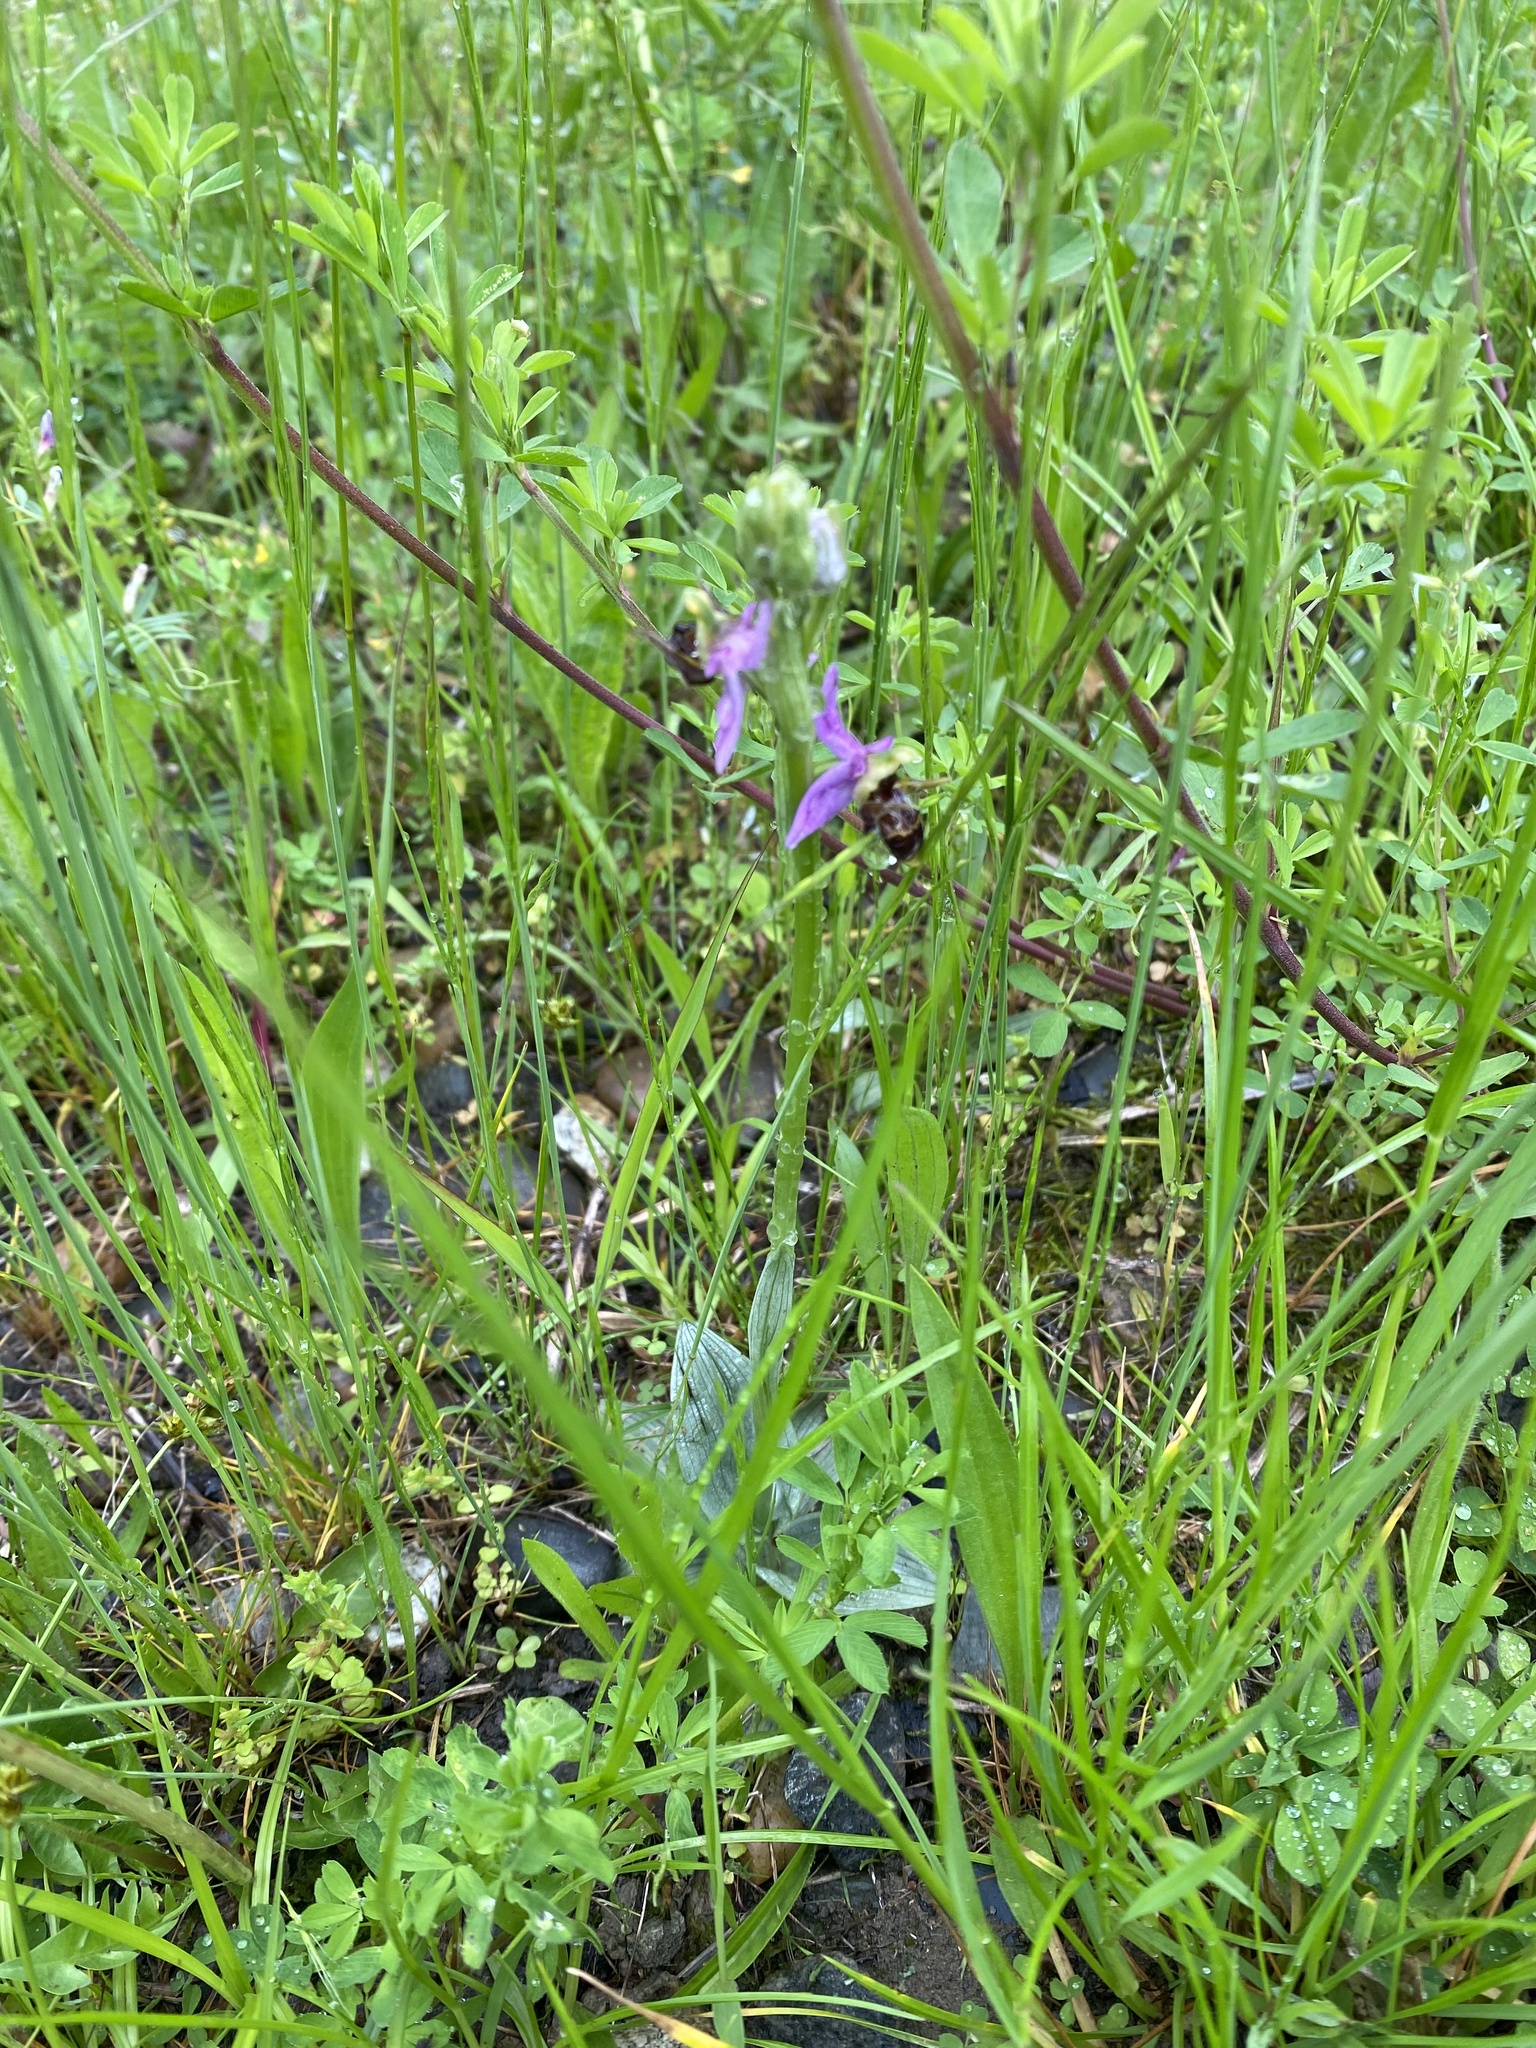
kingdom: Plantae
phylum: Tracheophyta
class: Liliopsida
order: Asparagales
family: Orchidaceae
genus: Ophrys
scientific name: Ophrys
